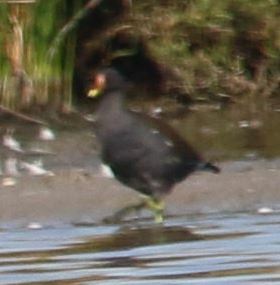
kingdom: Animalia
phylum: Chordata
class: Aves
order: Gruiformes
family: Rallidae
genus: Gallinula
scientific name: Gallinula chloropus
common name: Common moorhen
